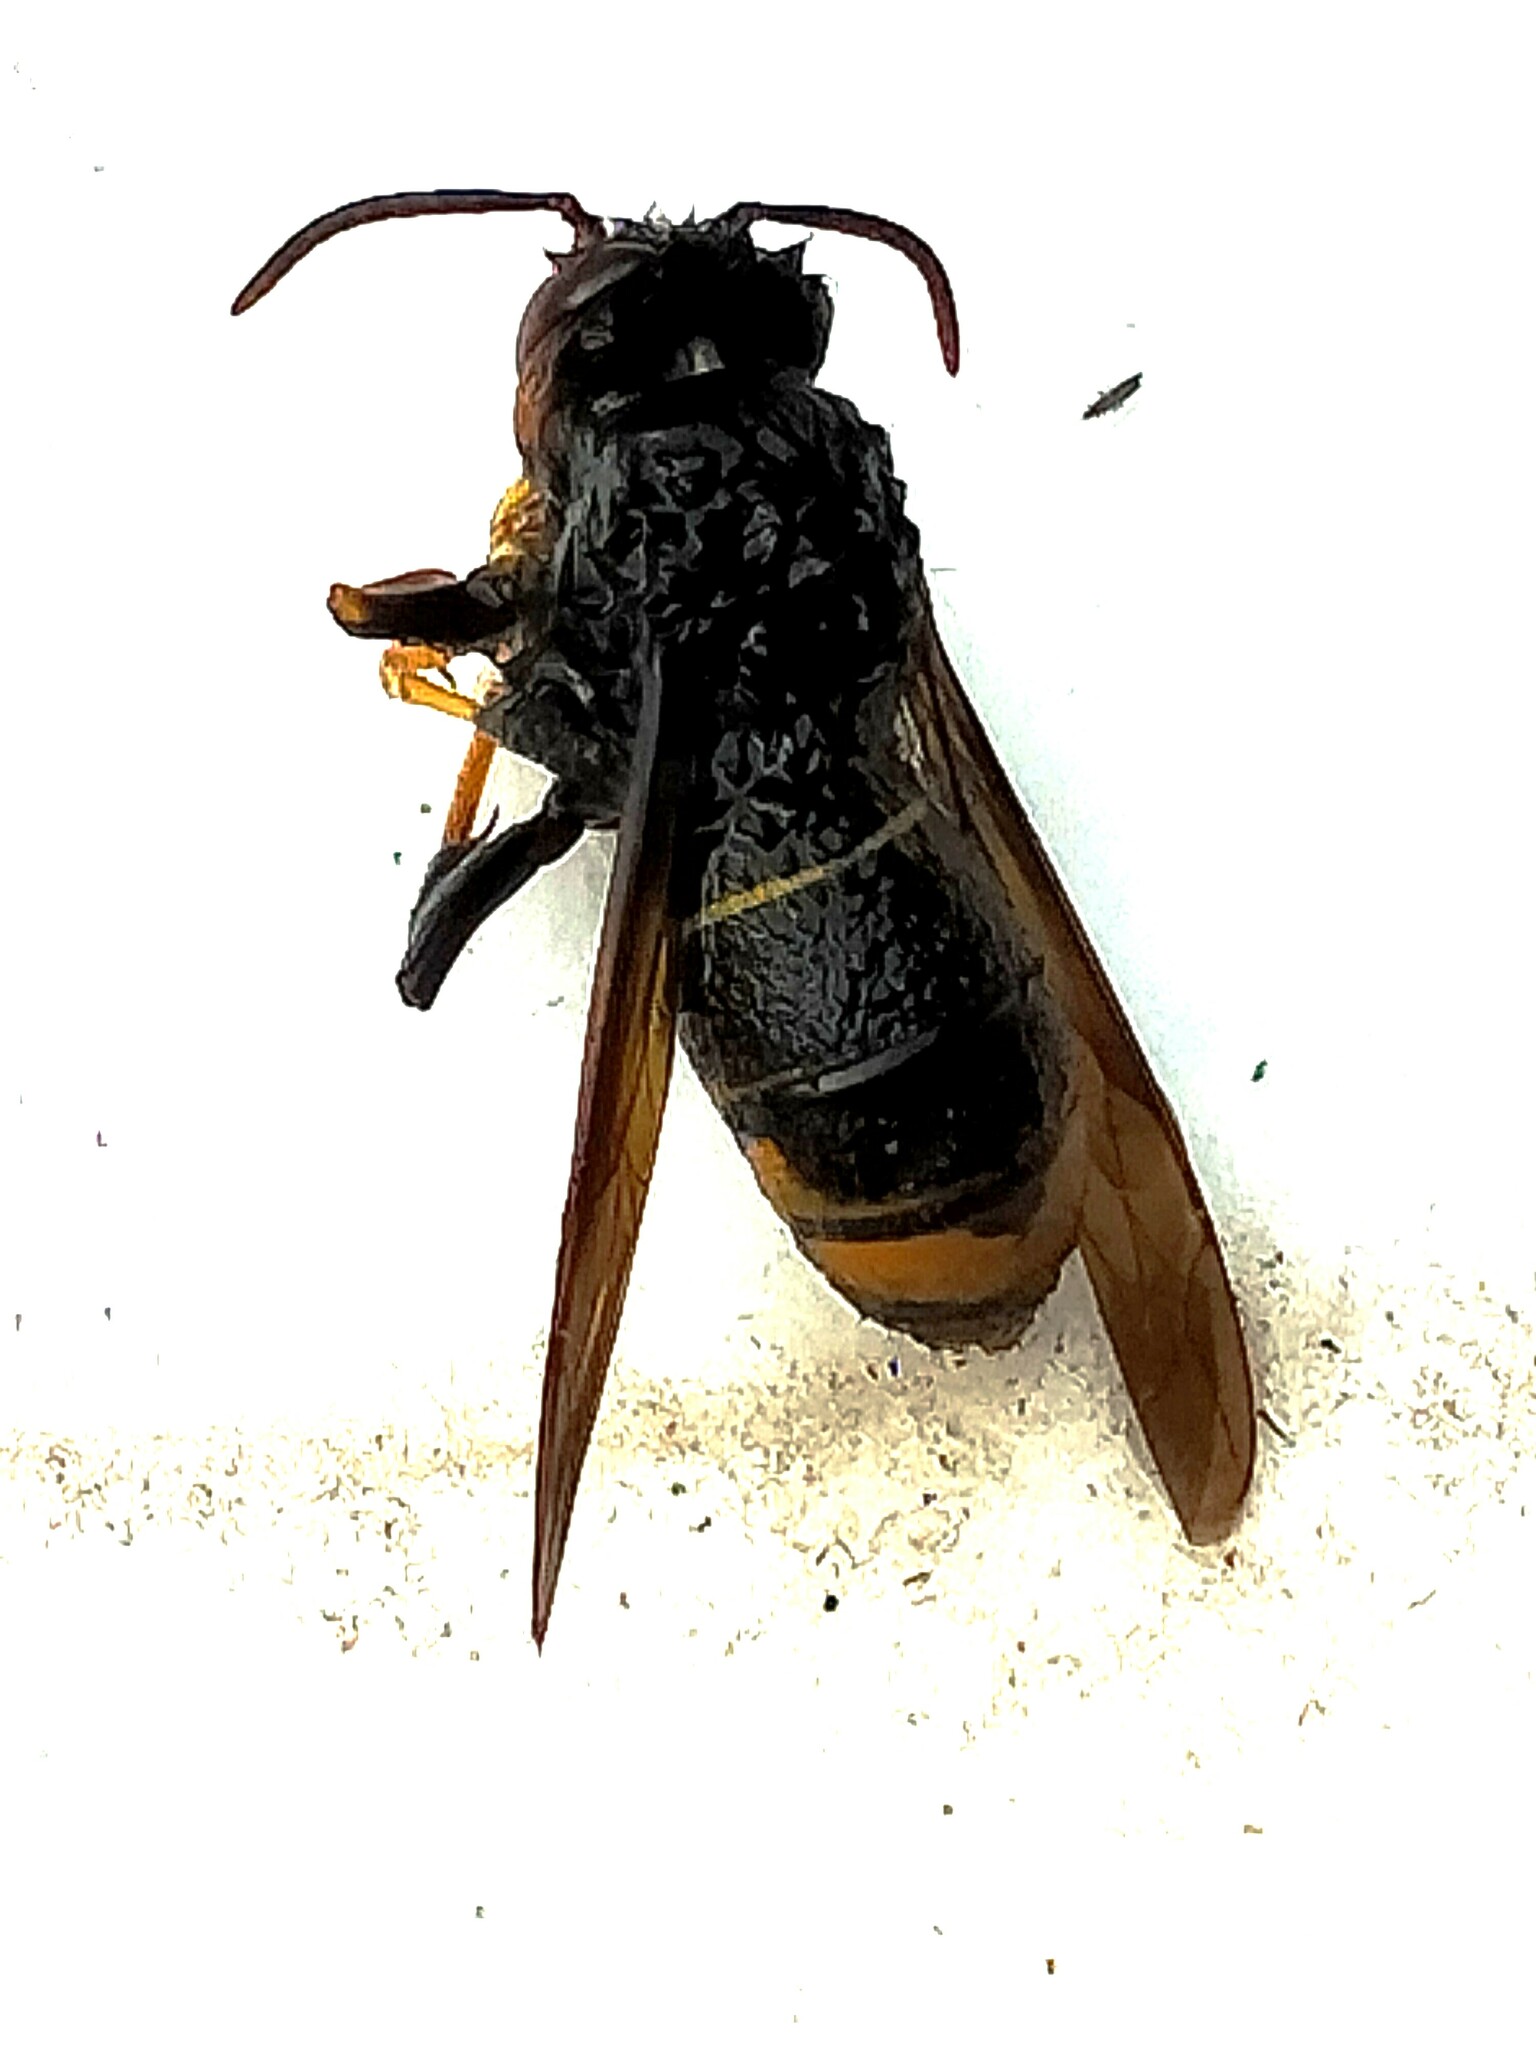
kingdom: Animalia
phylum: Arthropoda
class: Insecta
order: Hymenoptera
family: Vespidae
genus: Vespa
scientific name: Vespa velutina
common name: Asian hornet
